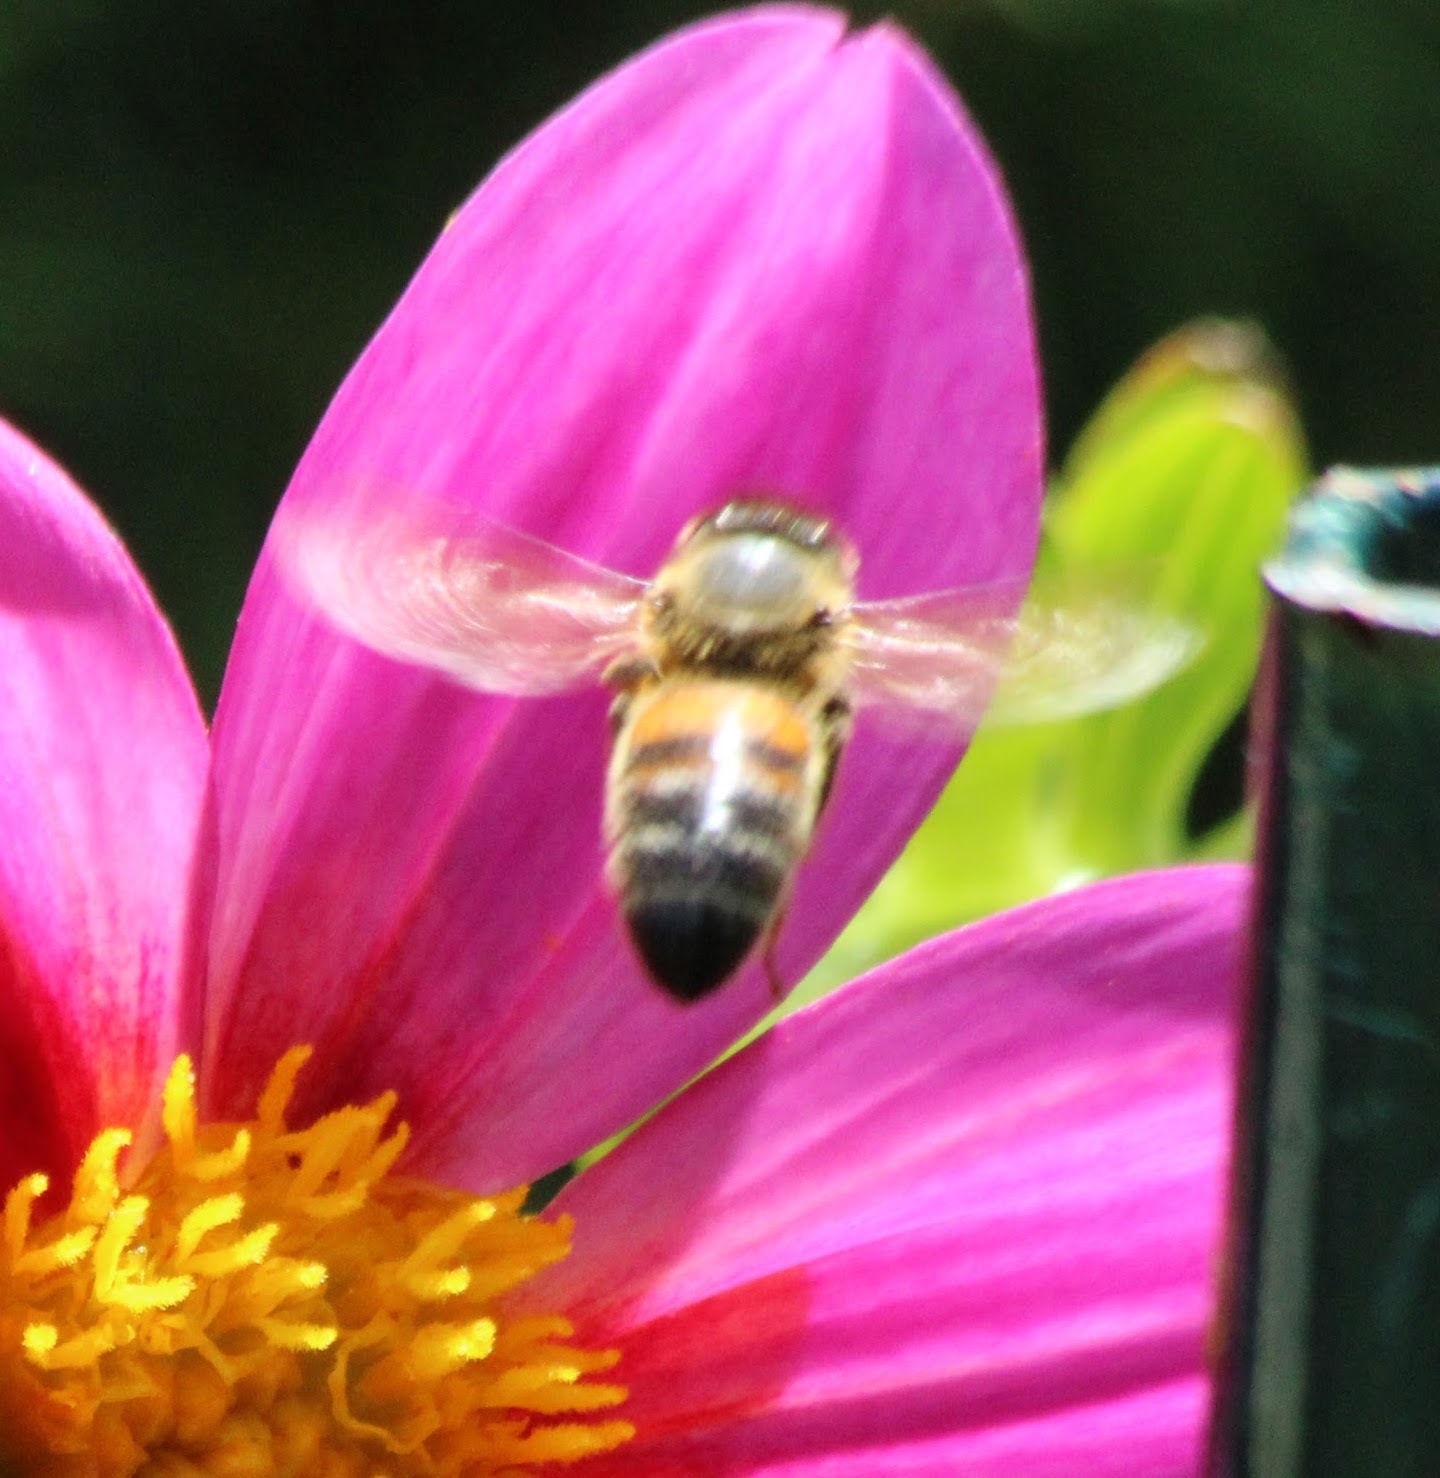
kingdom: Animalia
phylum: Arthropoda
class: Insecta
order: Hymenoptera
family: Apidae
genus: Apis
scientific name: Apis mellifera
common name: Honey bee
